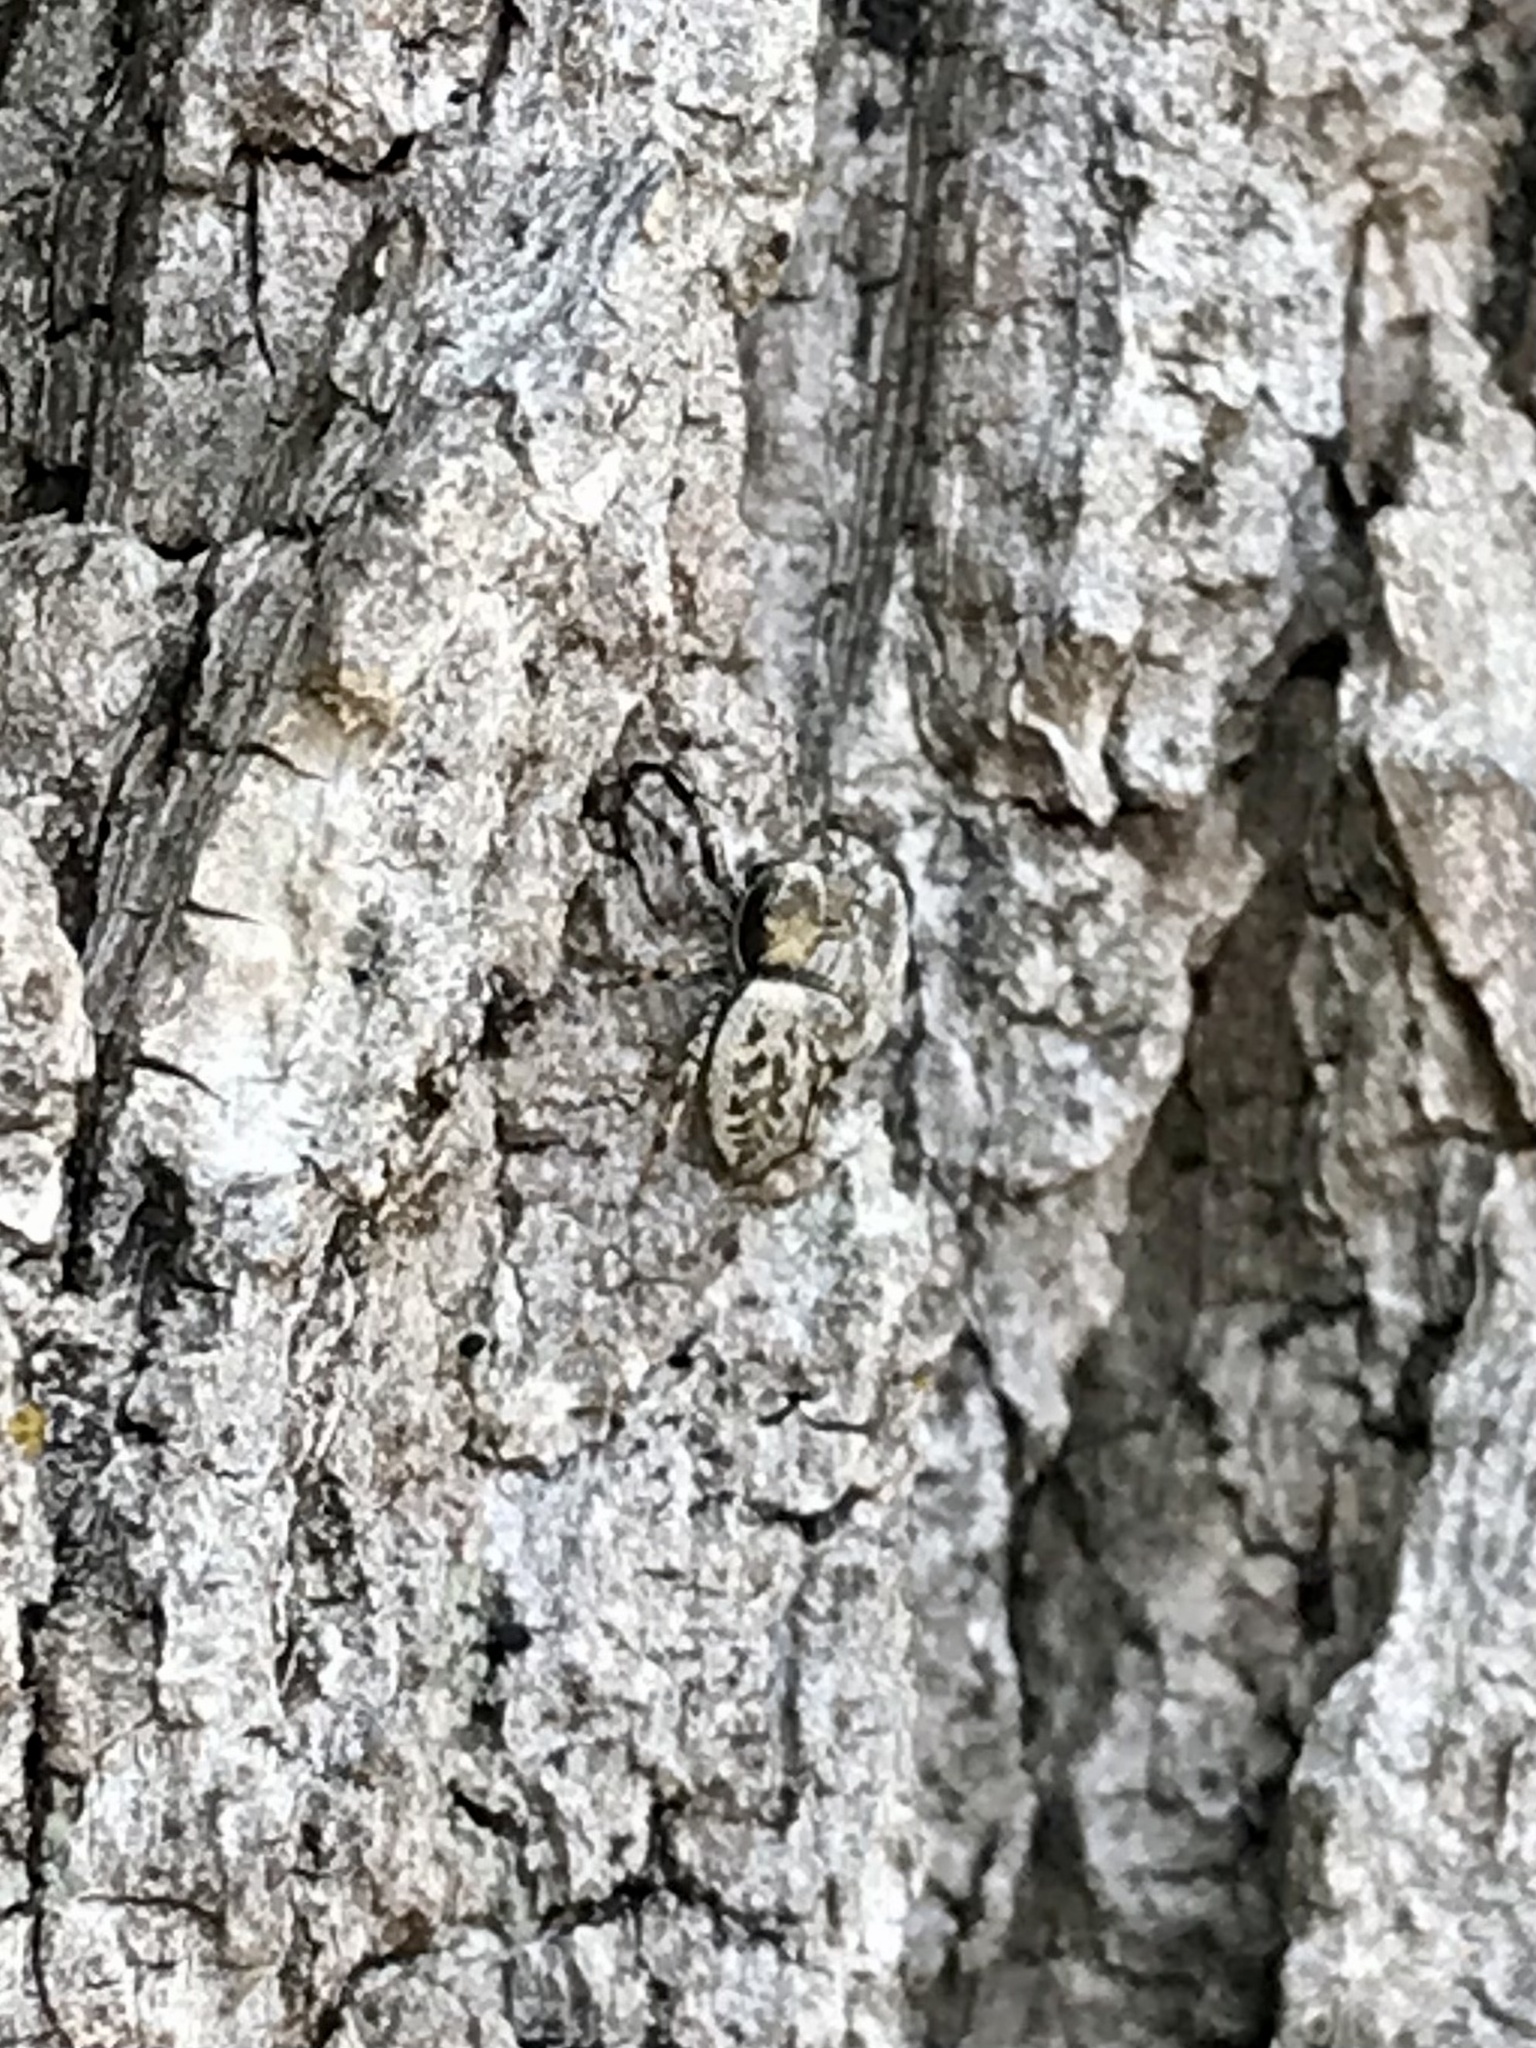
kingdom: Animalia
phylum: Arthropoda
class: Arachnida
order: Araneae
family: Salticidae
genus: Tutelina
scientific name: Tutelina harti
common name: Hart's jumping spider
